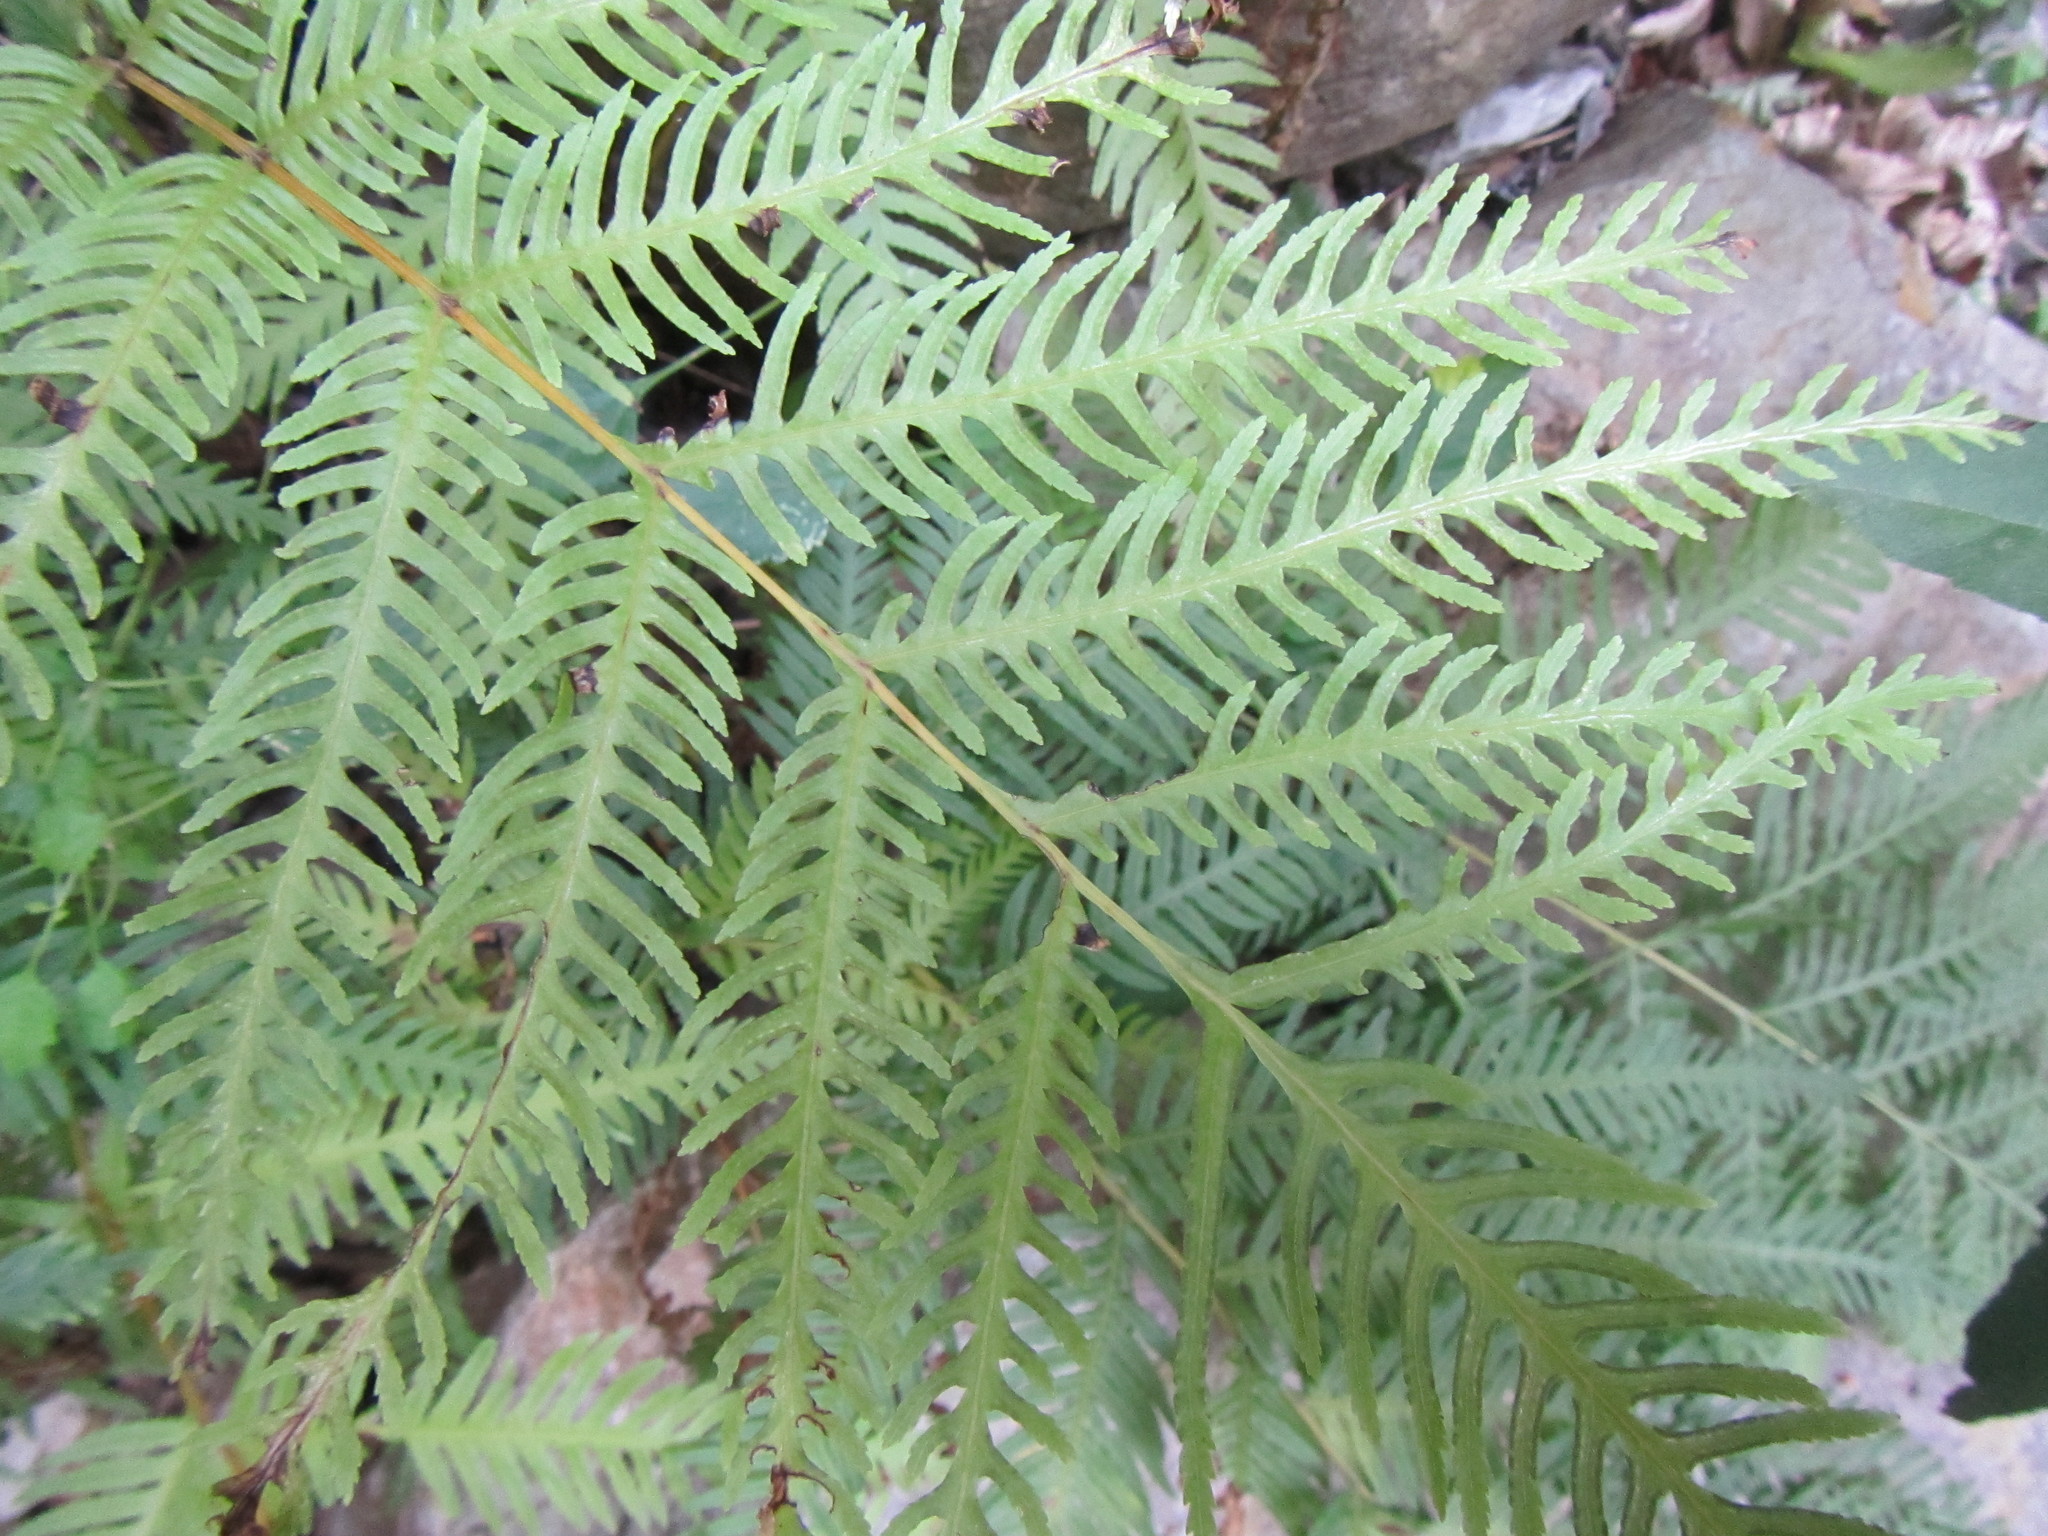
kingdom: Plantae
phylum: Tracheophyta
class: Polypodiopsida
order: Polypodiales
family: Pteridaceae
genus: Pteris
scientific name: Pteris dentata
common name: Toothed brake
